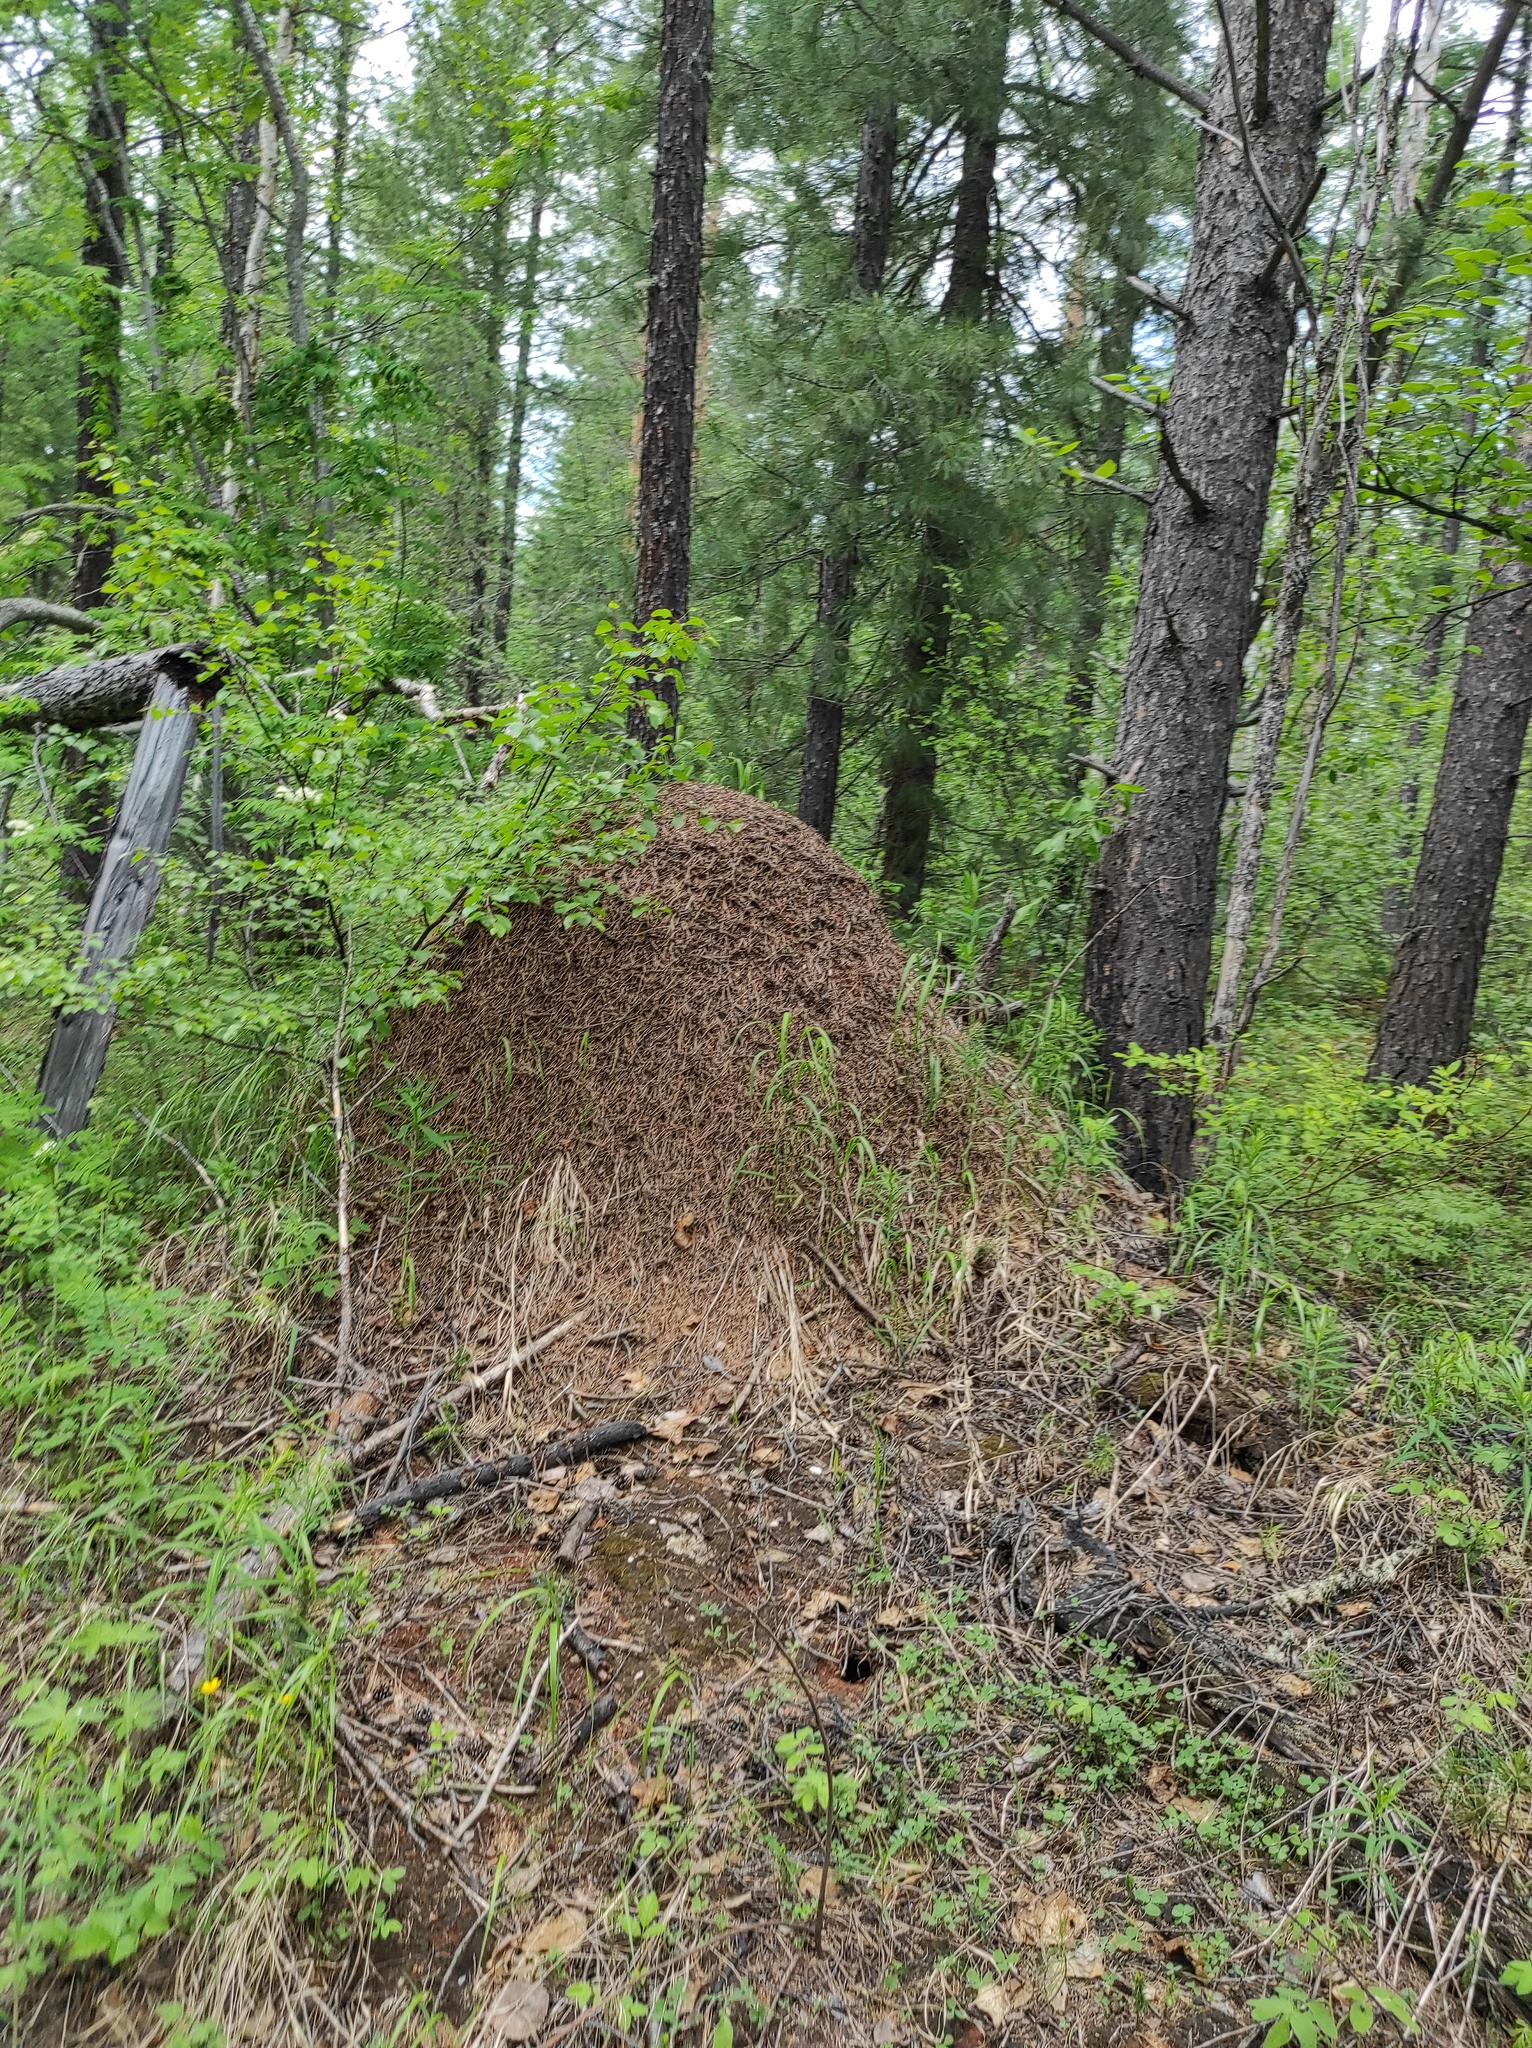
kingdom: Plantae
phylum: Tracheophyta
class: Pinopsida
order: Pinales
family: Pinaceae
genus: Pinus
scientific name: Pinus sibirica
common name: Siberian pine
